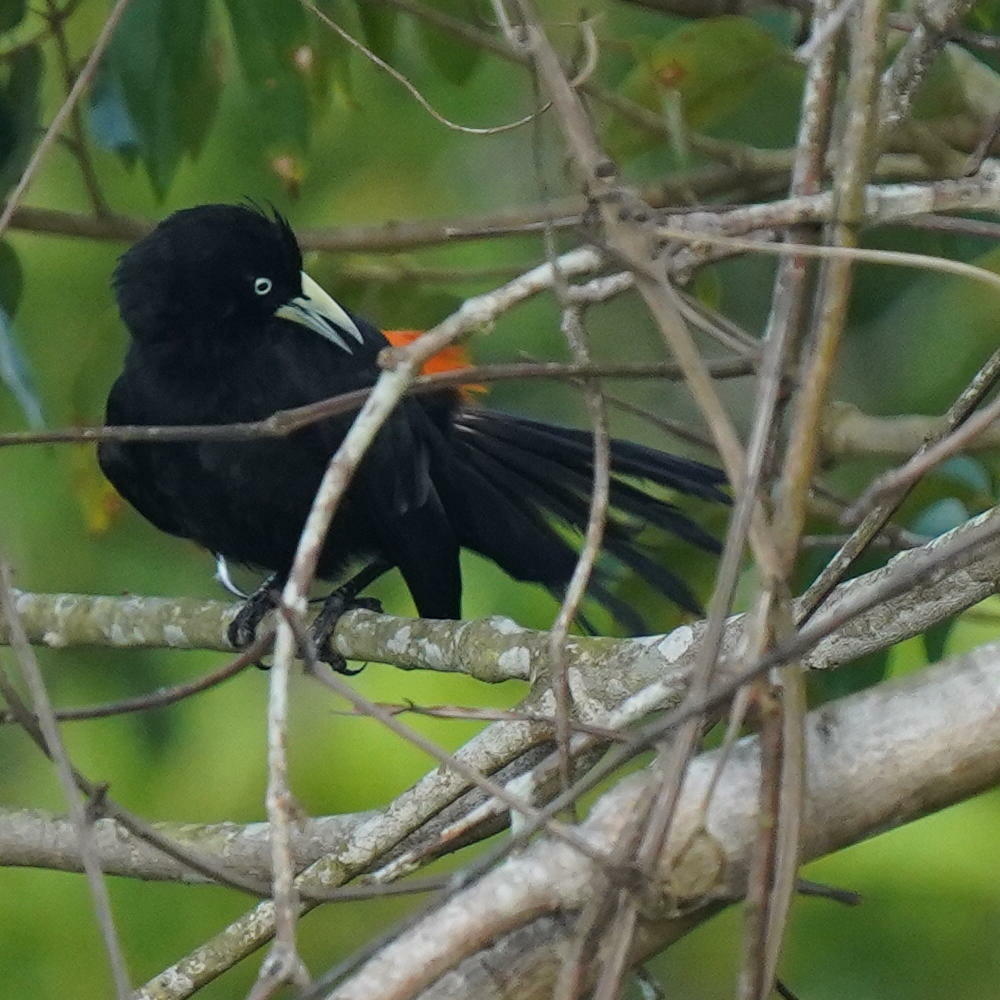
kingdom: Animalia
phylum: Chordata
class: Aves
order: Passeriformes
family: Icteridae
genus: Cacicus
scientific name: Cacicus uropygialis
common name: Scarlet-rumped cacique
